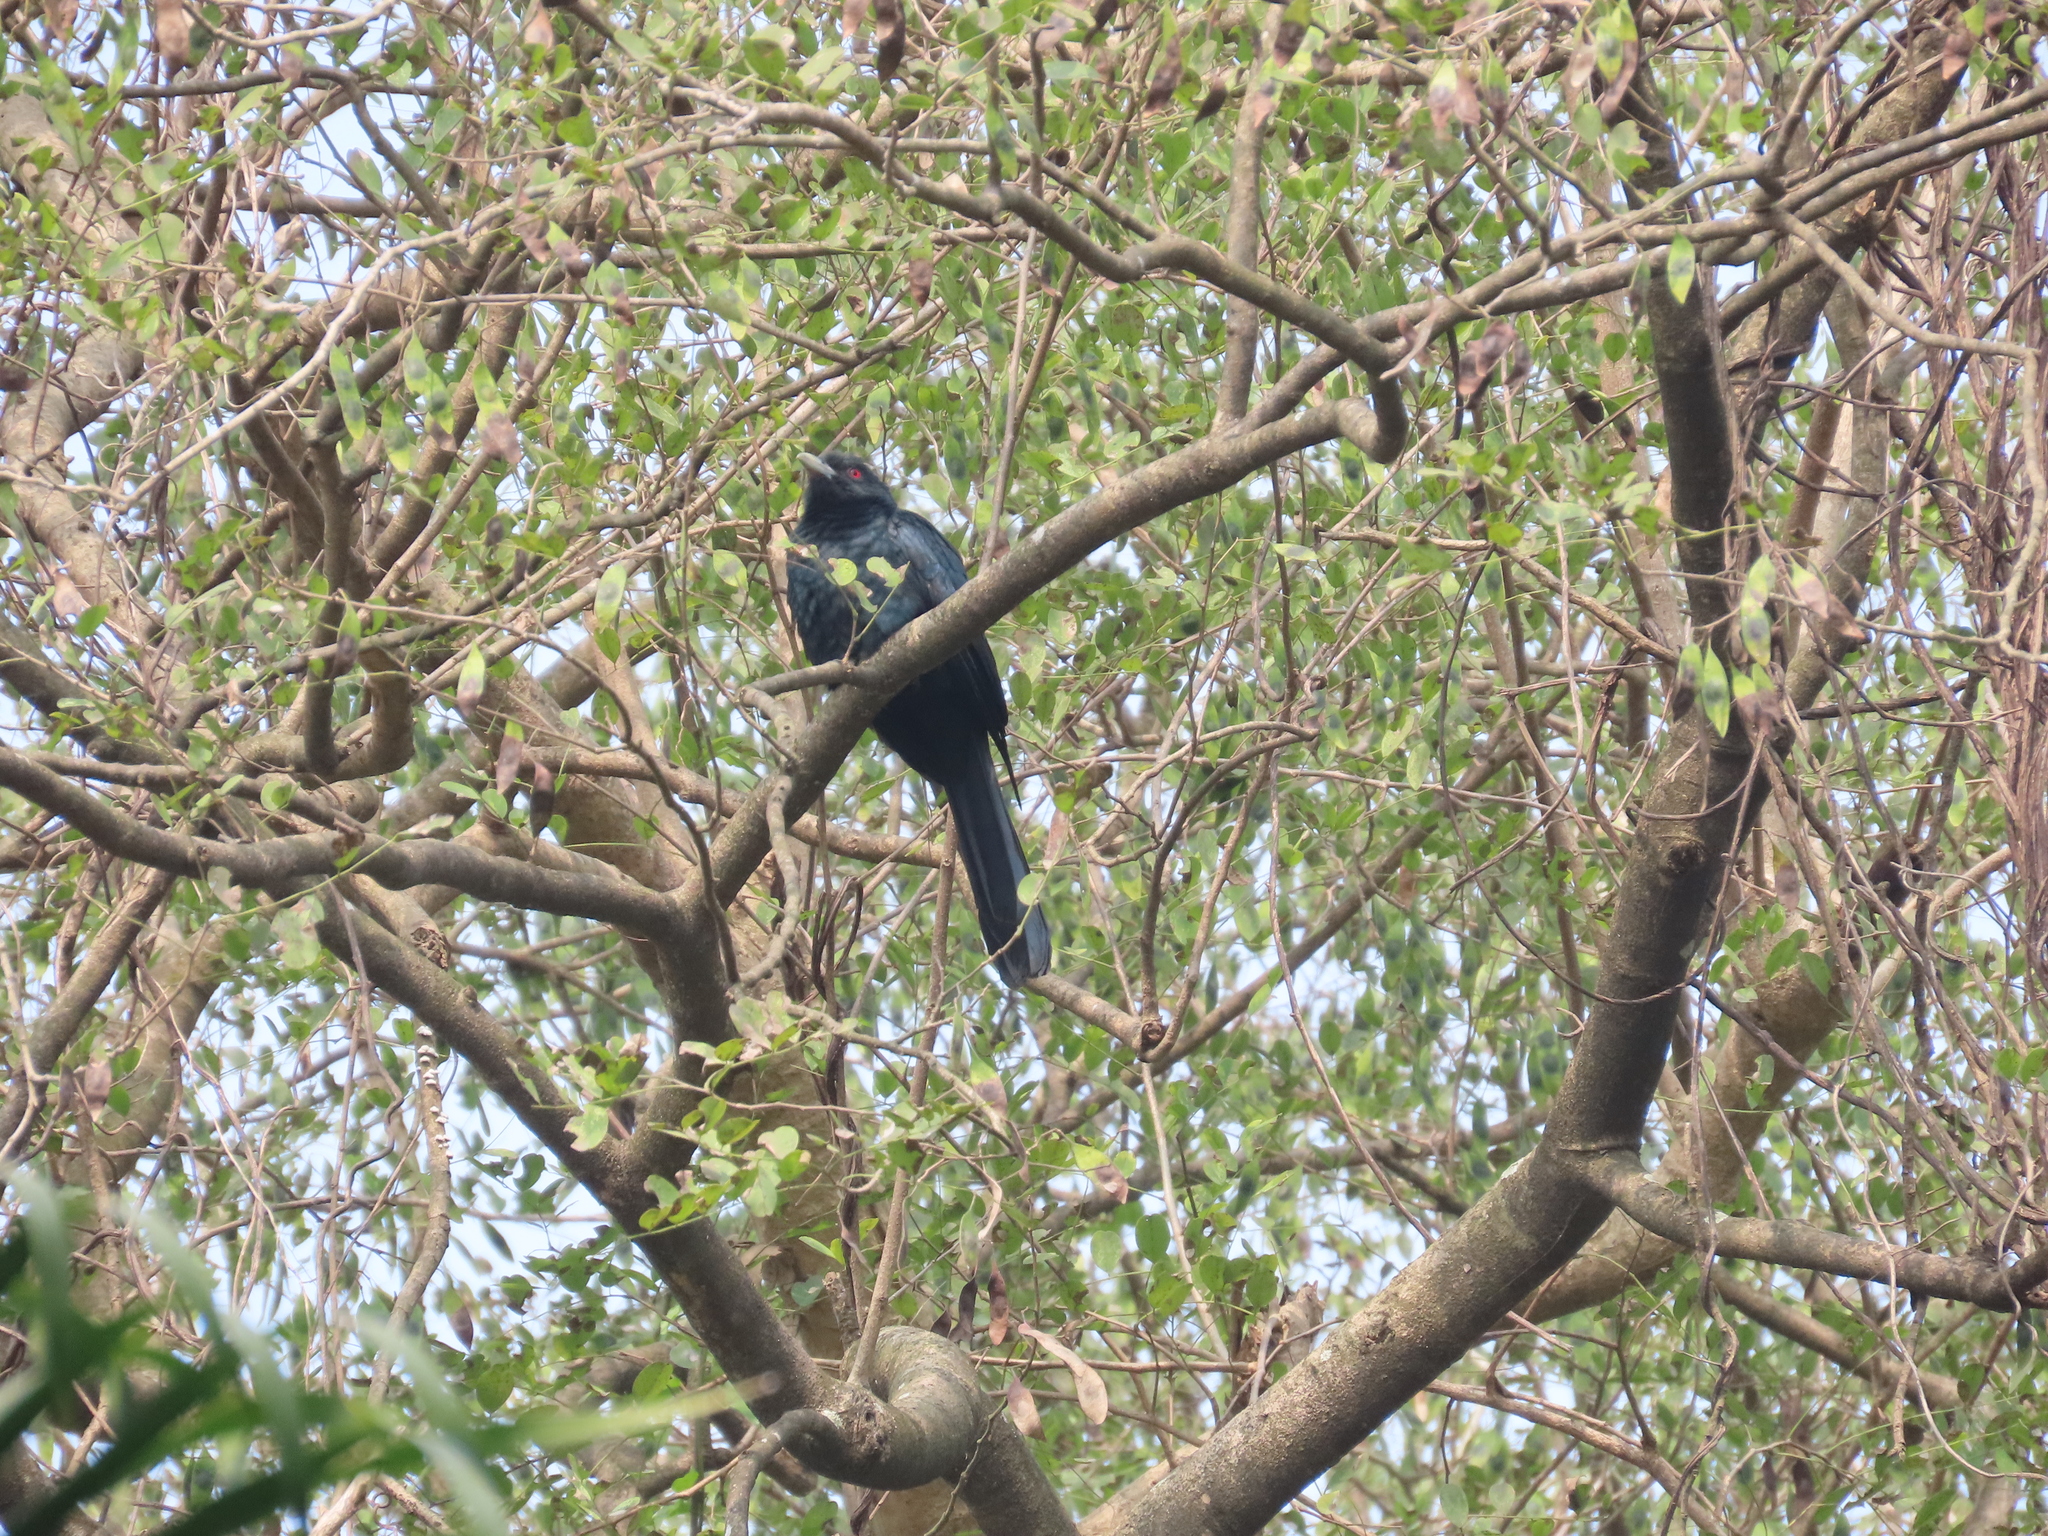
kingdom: Animalia
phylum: Chordata
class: Aves
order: Cuculiformes
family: Cuculidae
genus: Eudynamys
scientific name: Eudynamys scolopaceus
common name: Asian koel
